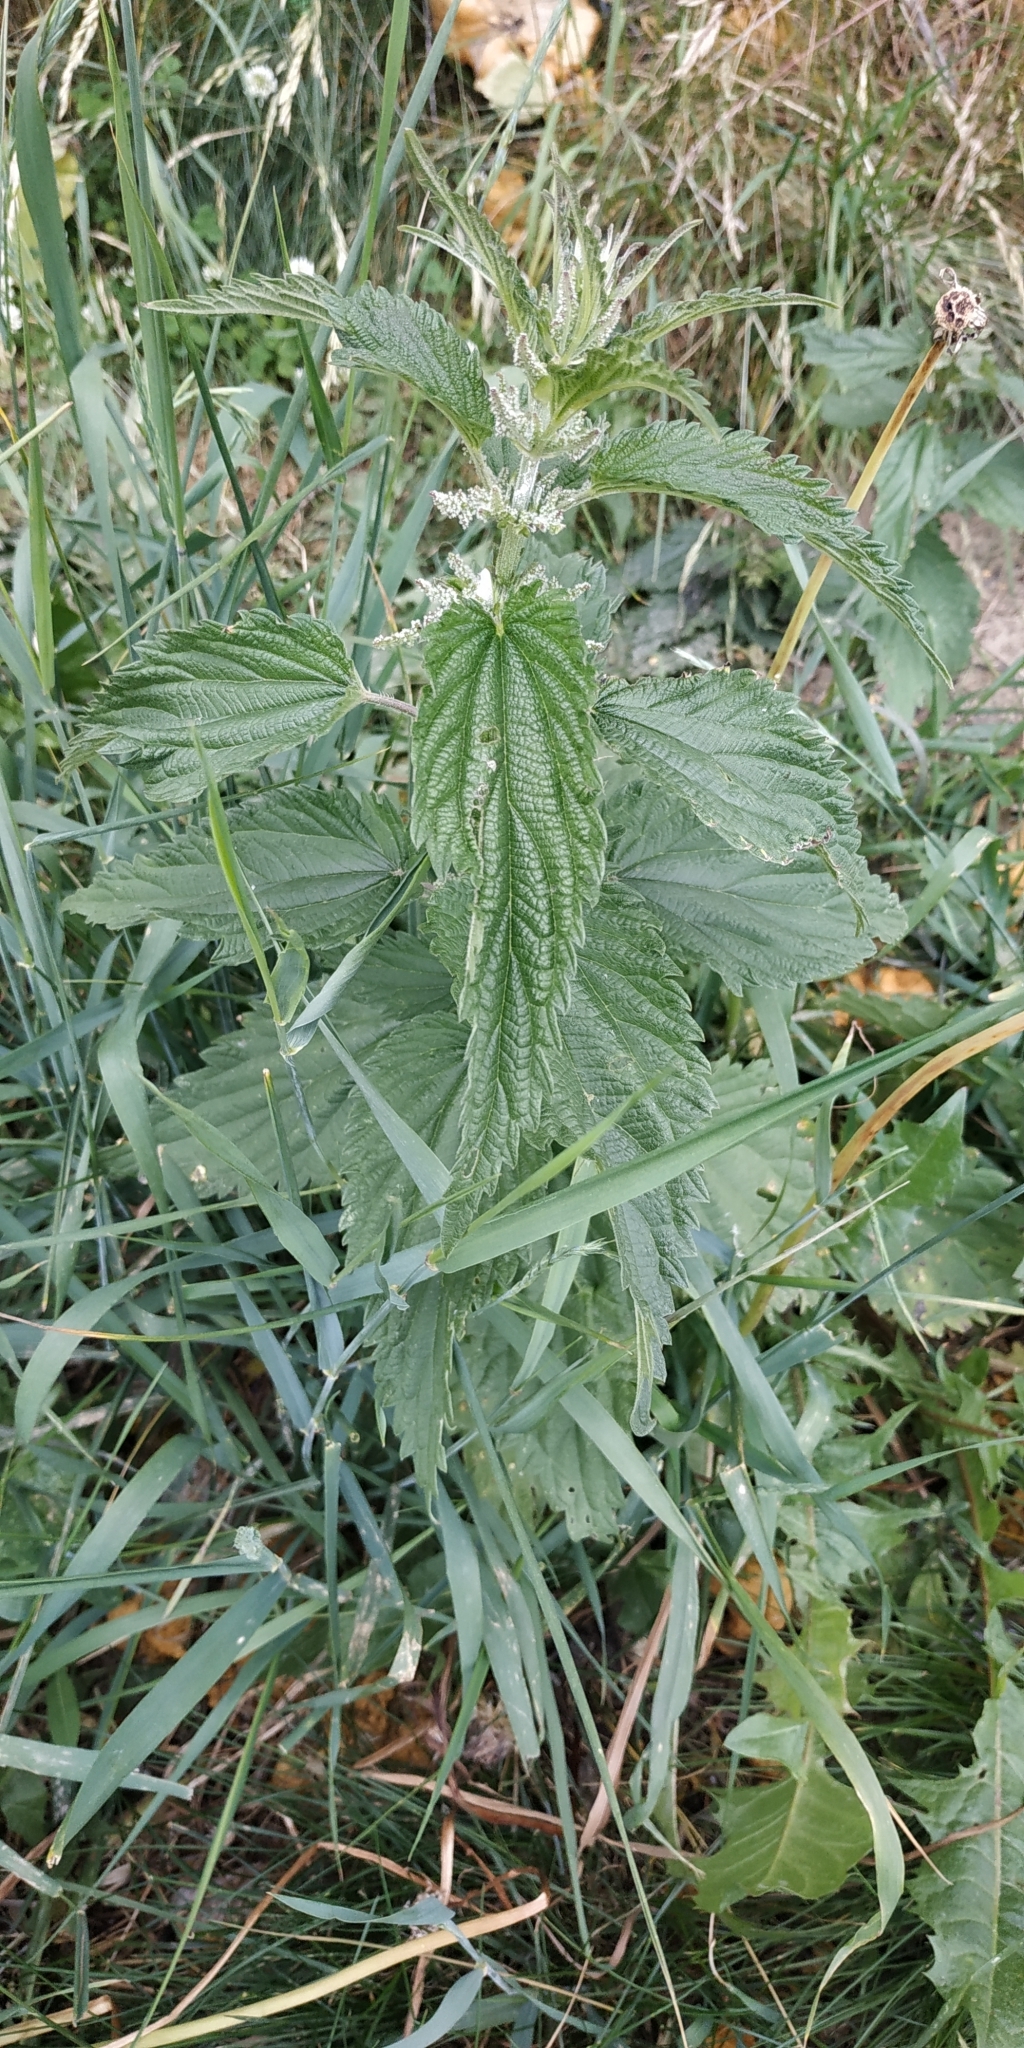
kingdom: Plantae
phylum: Tracheophyta
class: Magnoliopsida
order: Rosales
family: Urticaceae
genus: Urtica
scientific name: Urtica dioica
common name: Common nettle
